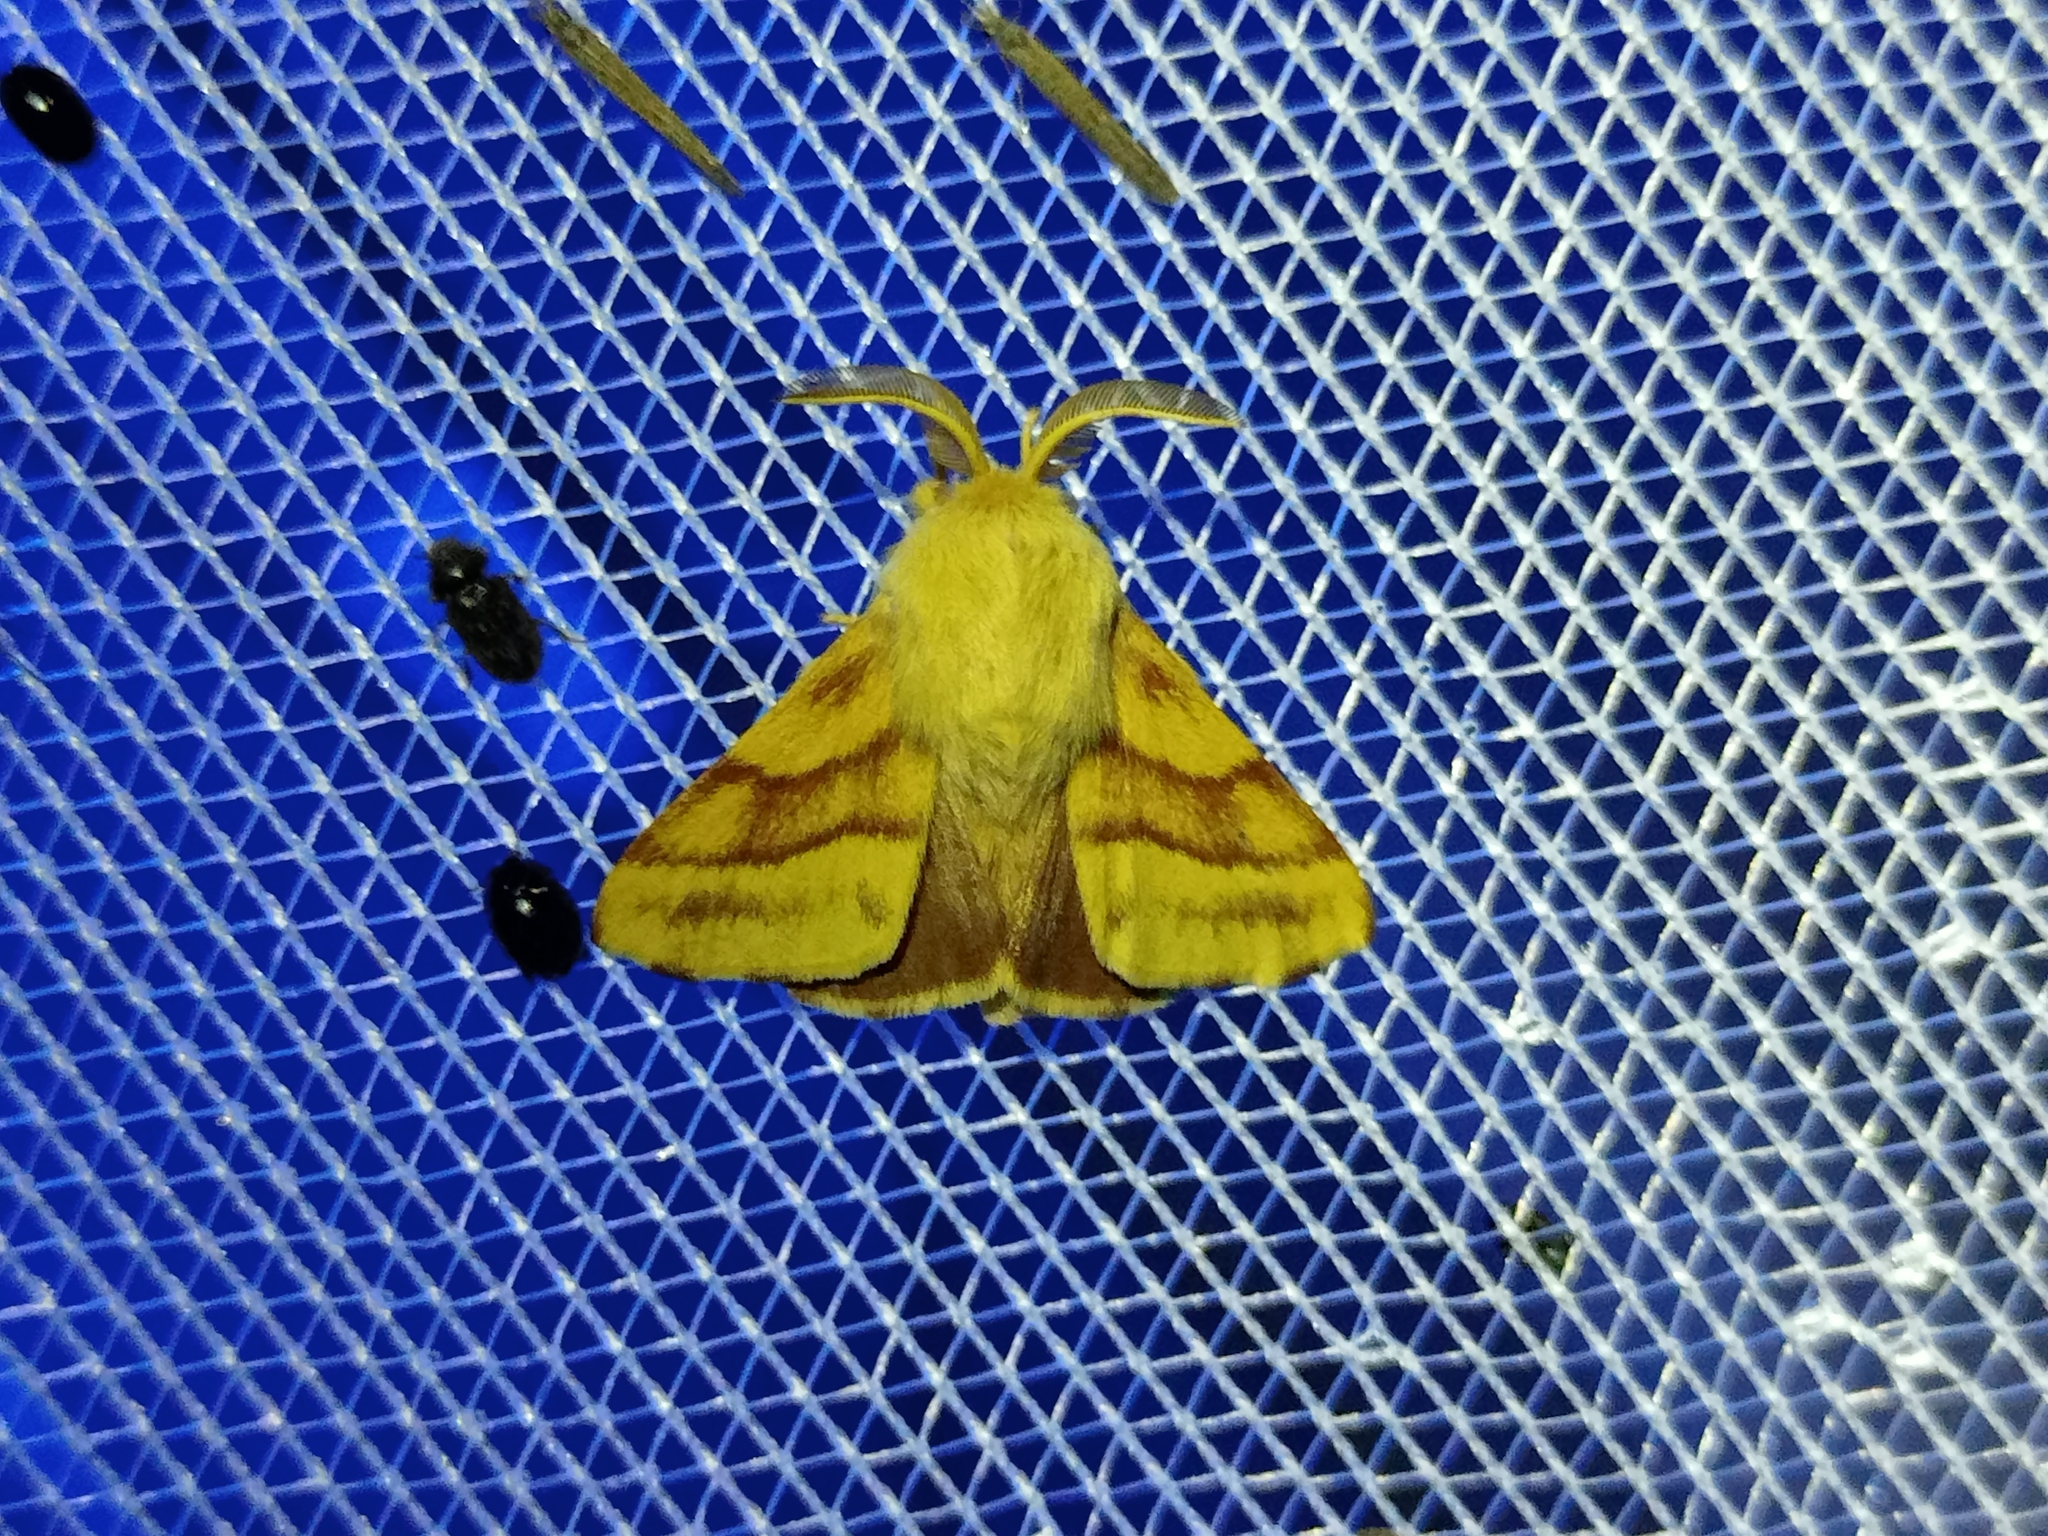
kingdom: Animalia
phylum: Arthropoda
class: Insecta
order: Lepidoptera
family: Lasiocampidae
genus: Malacosoma
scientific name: Malacosoma castrense
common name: Ground lackey
